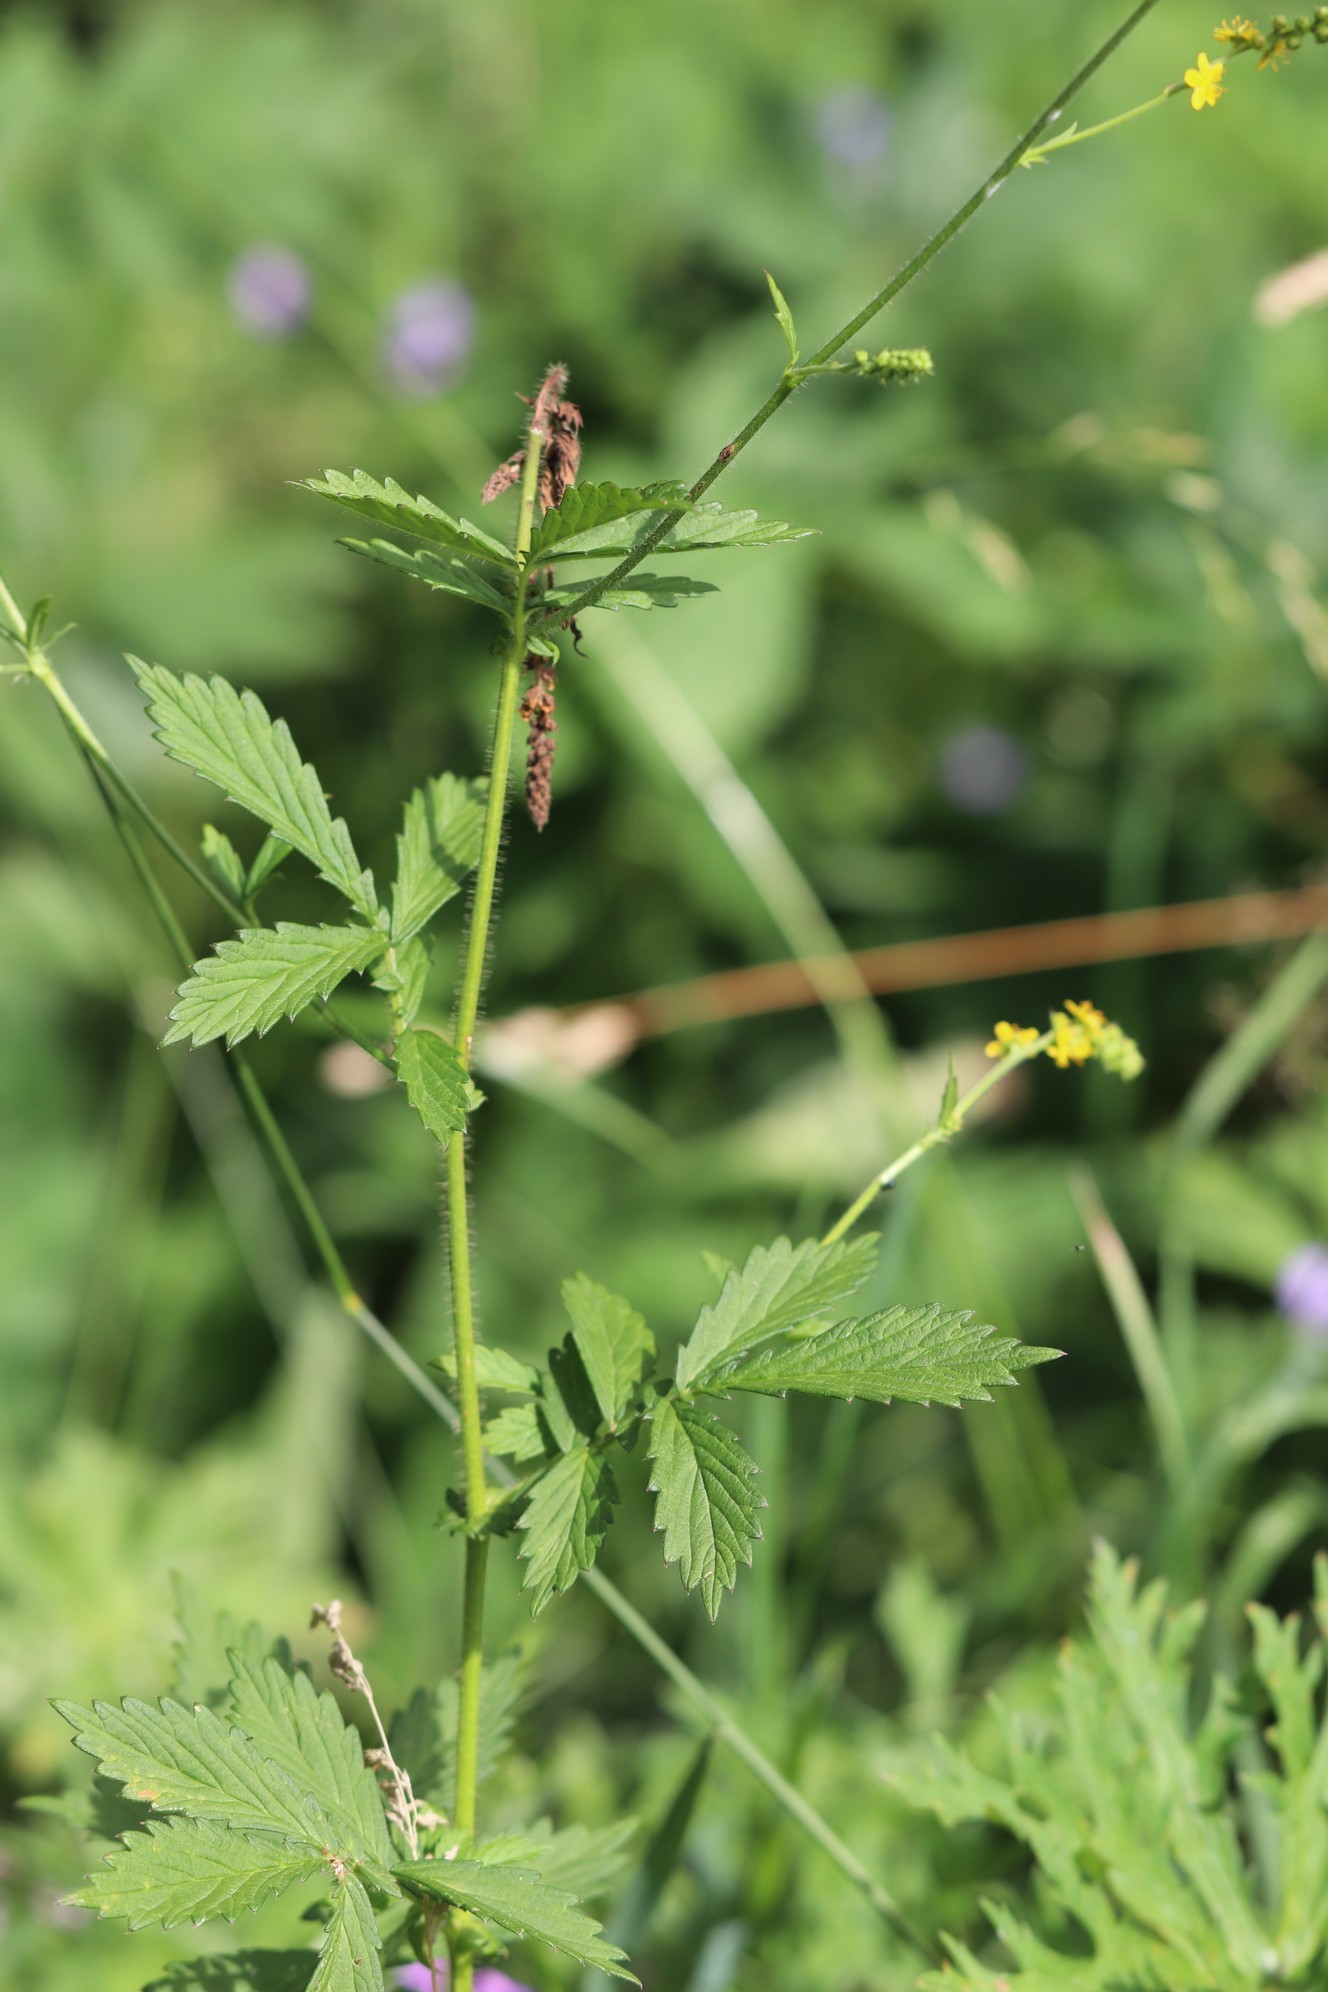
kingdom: Plantae
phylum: Tracheophyta
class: Magnoliopsida
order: Rosales
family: Rosaceae
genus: Agrimonia
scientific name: Agrimonia pilosa
